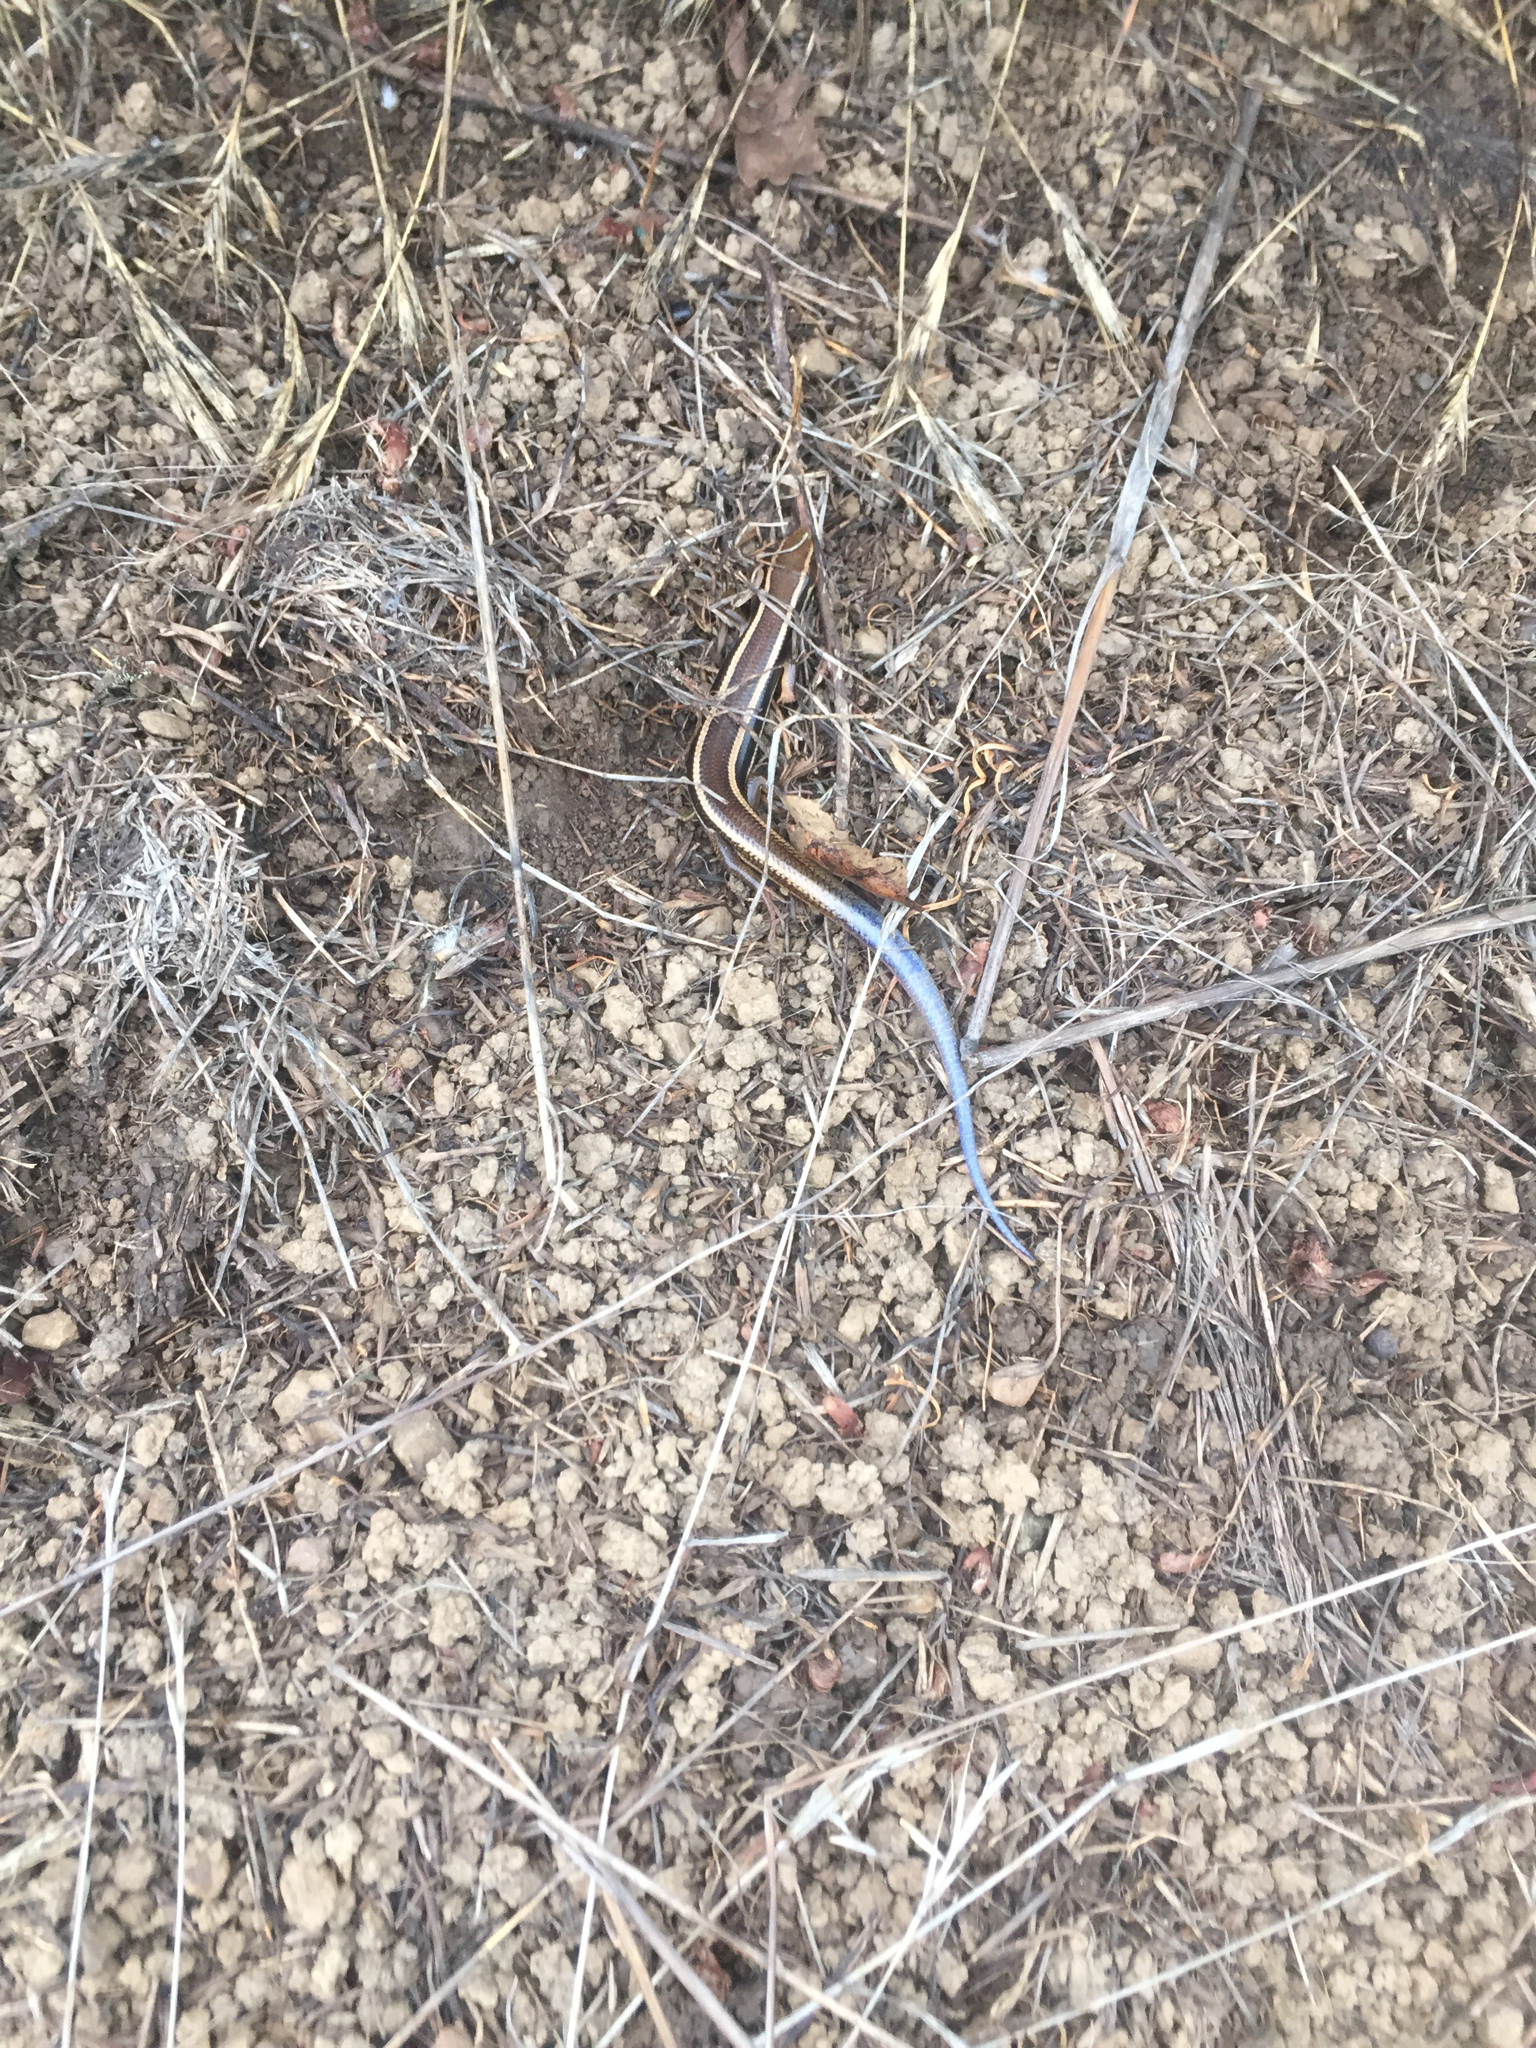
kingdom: Animalia
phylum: Chordata
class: Squamata
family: Scincidae
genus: Plestiodon
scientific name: Plestiodon skiltonianus
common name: Coronado island skink [interparietalis]
